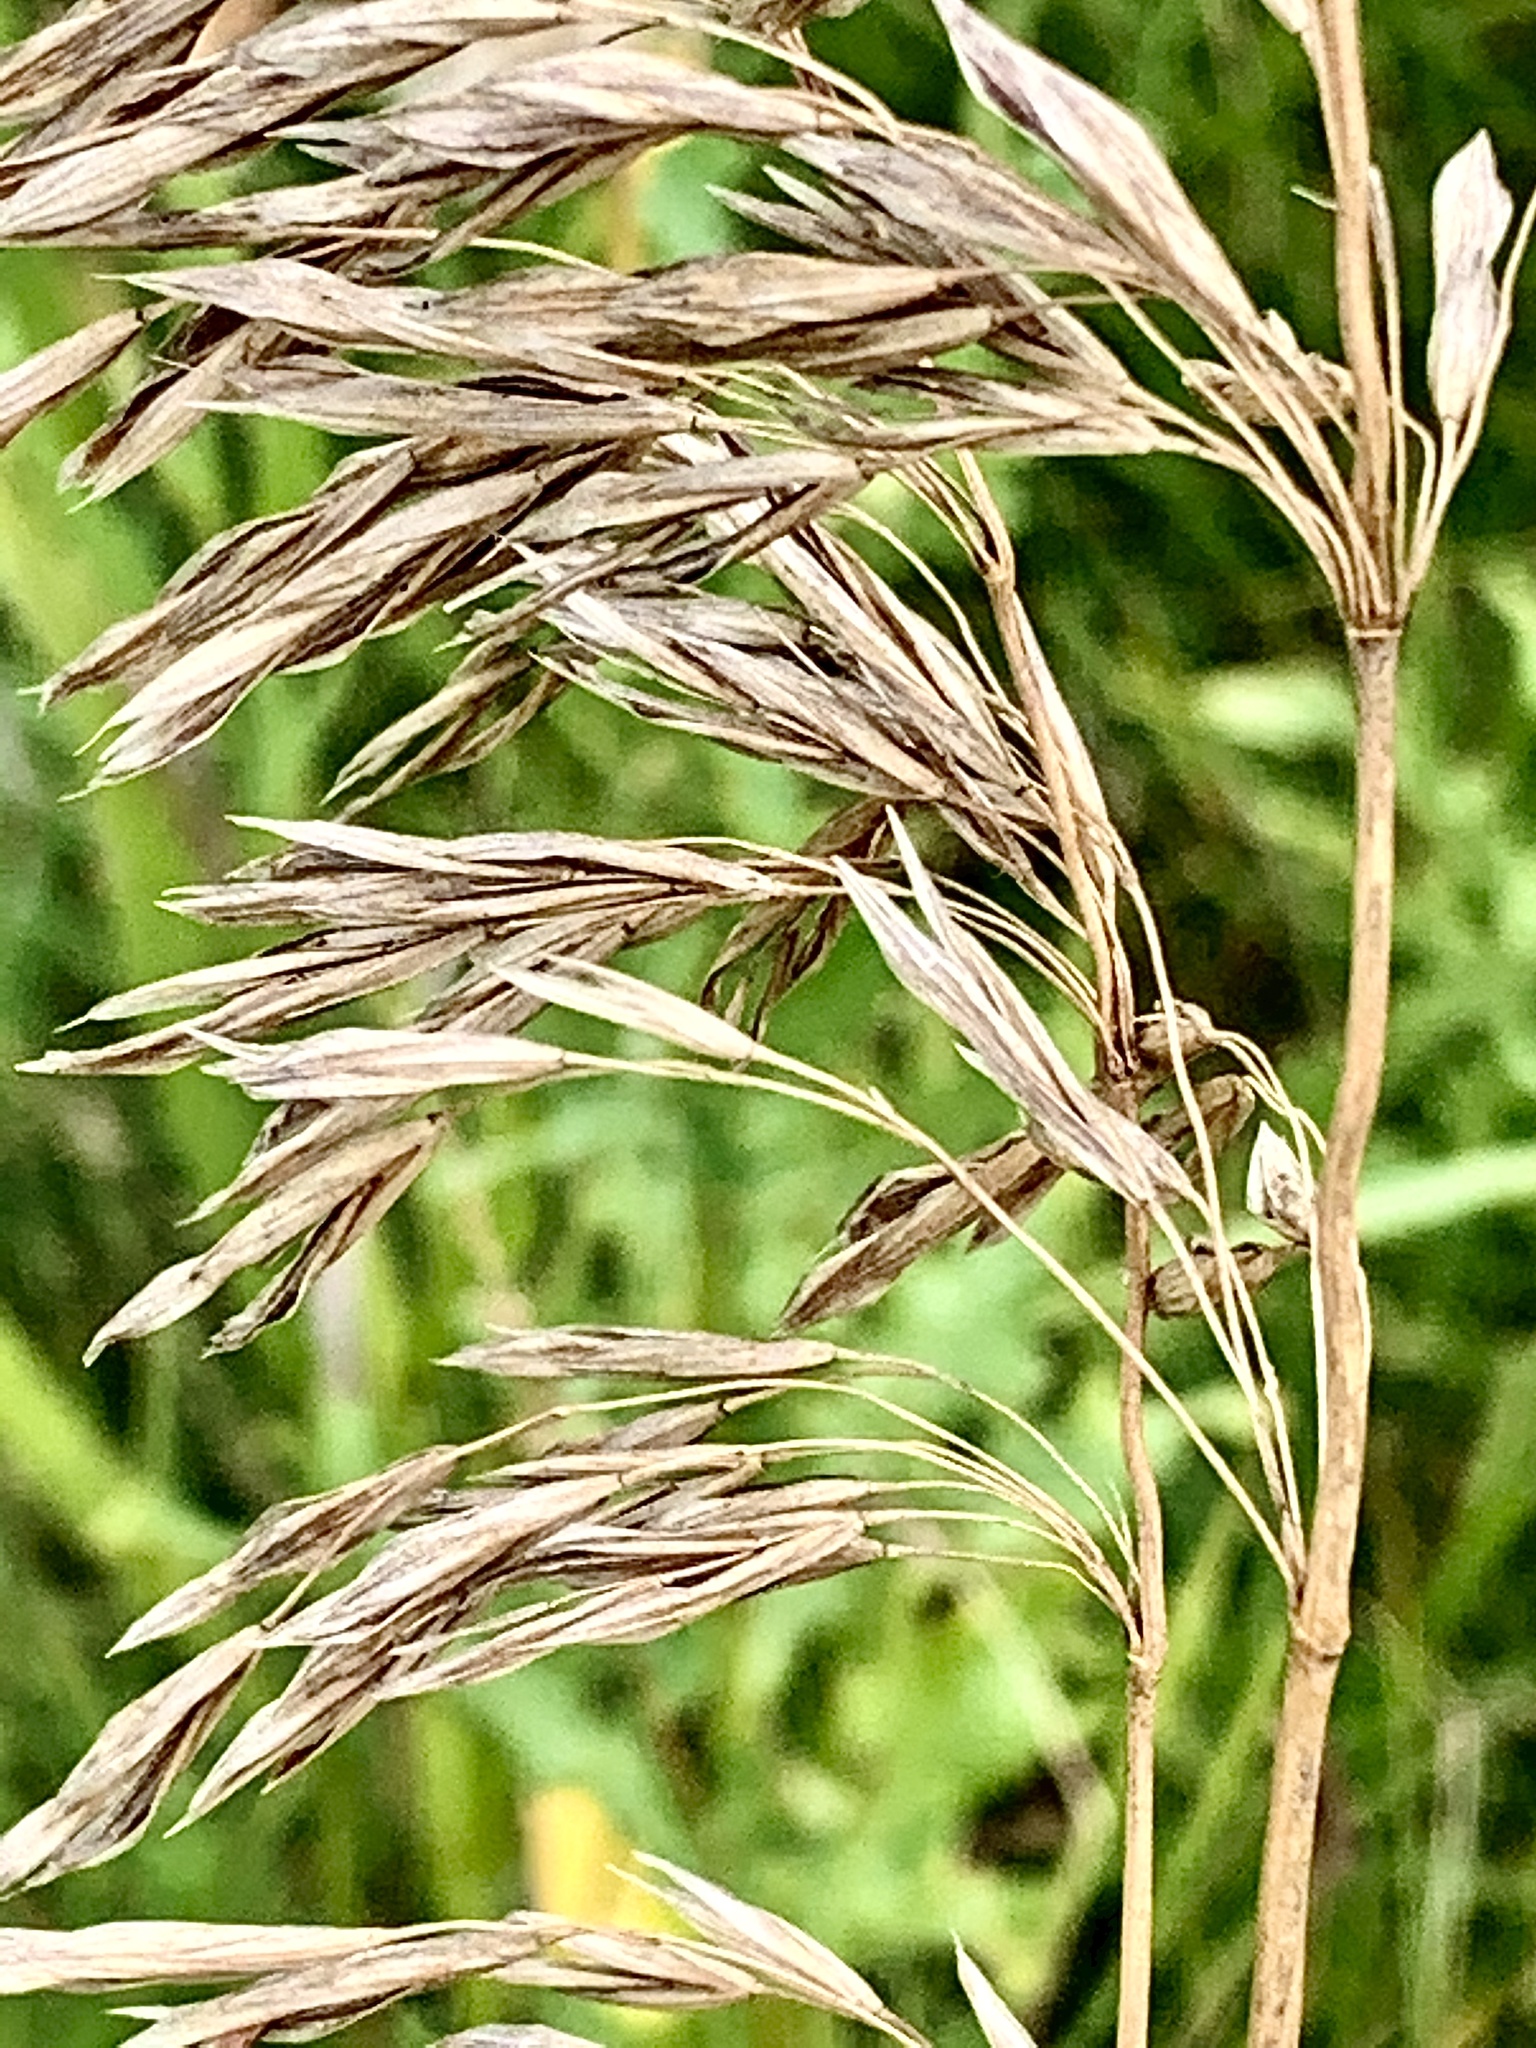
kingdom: Plantae
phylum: Tracheophyta
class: Liliopsida
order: Poales
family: Poaceae
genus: Bromus
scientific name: Bromus inermis
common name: Smooth brome
